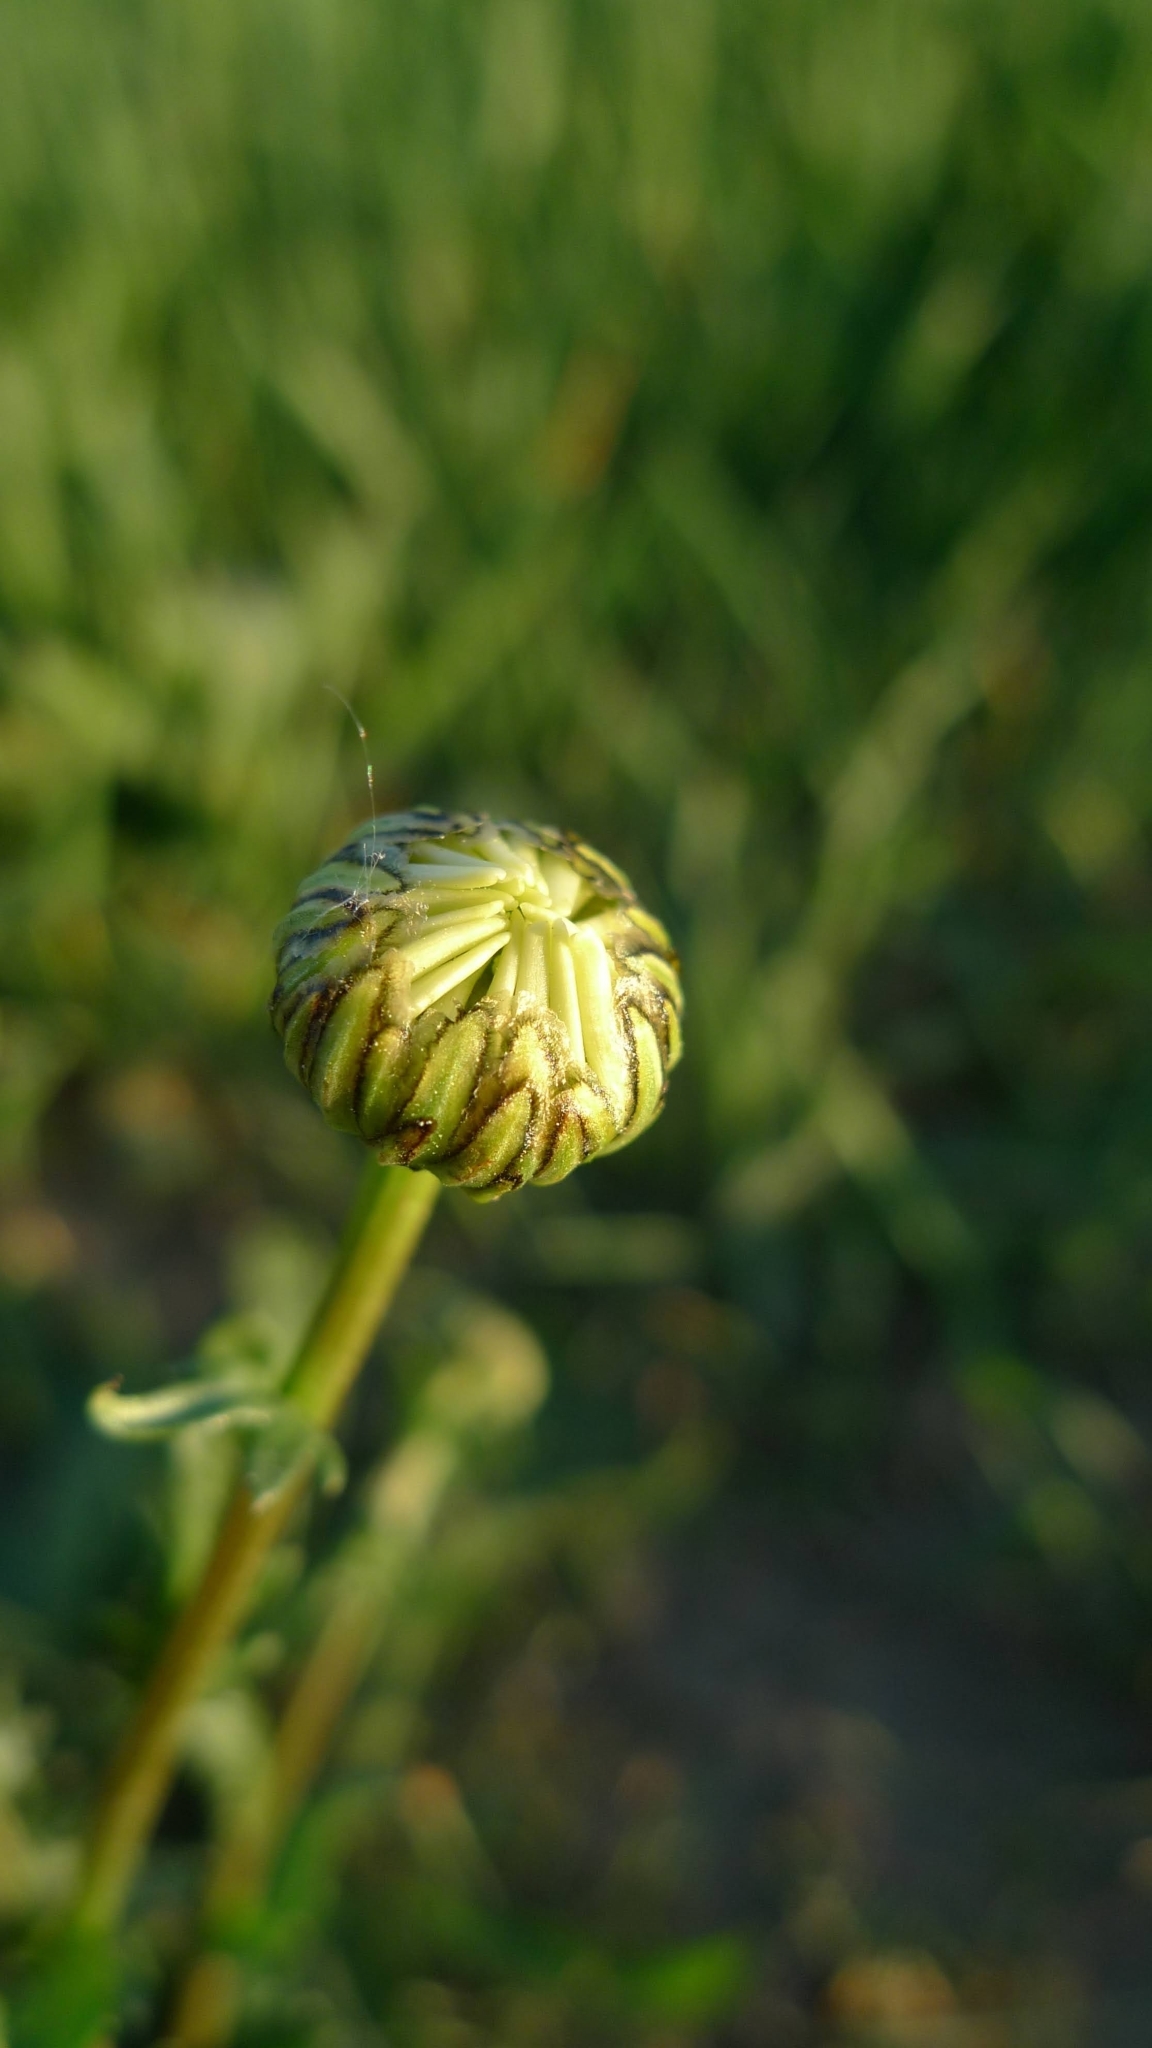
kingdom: Plantae
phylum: Tracheophyta
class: Magnoliopsida
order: Asterales
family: Asteraceae
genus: Leucanthemum
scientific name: Leucanthemum vulgare
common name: Oxeye daisy
